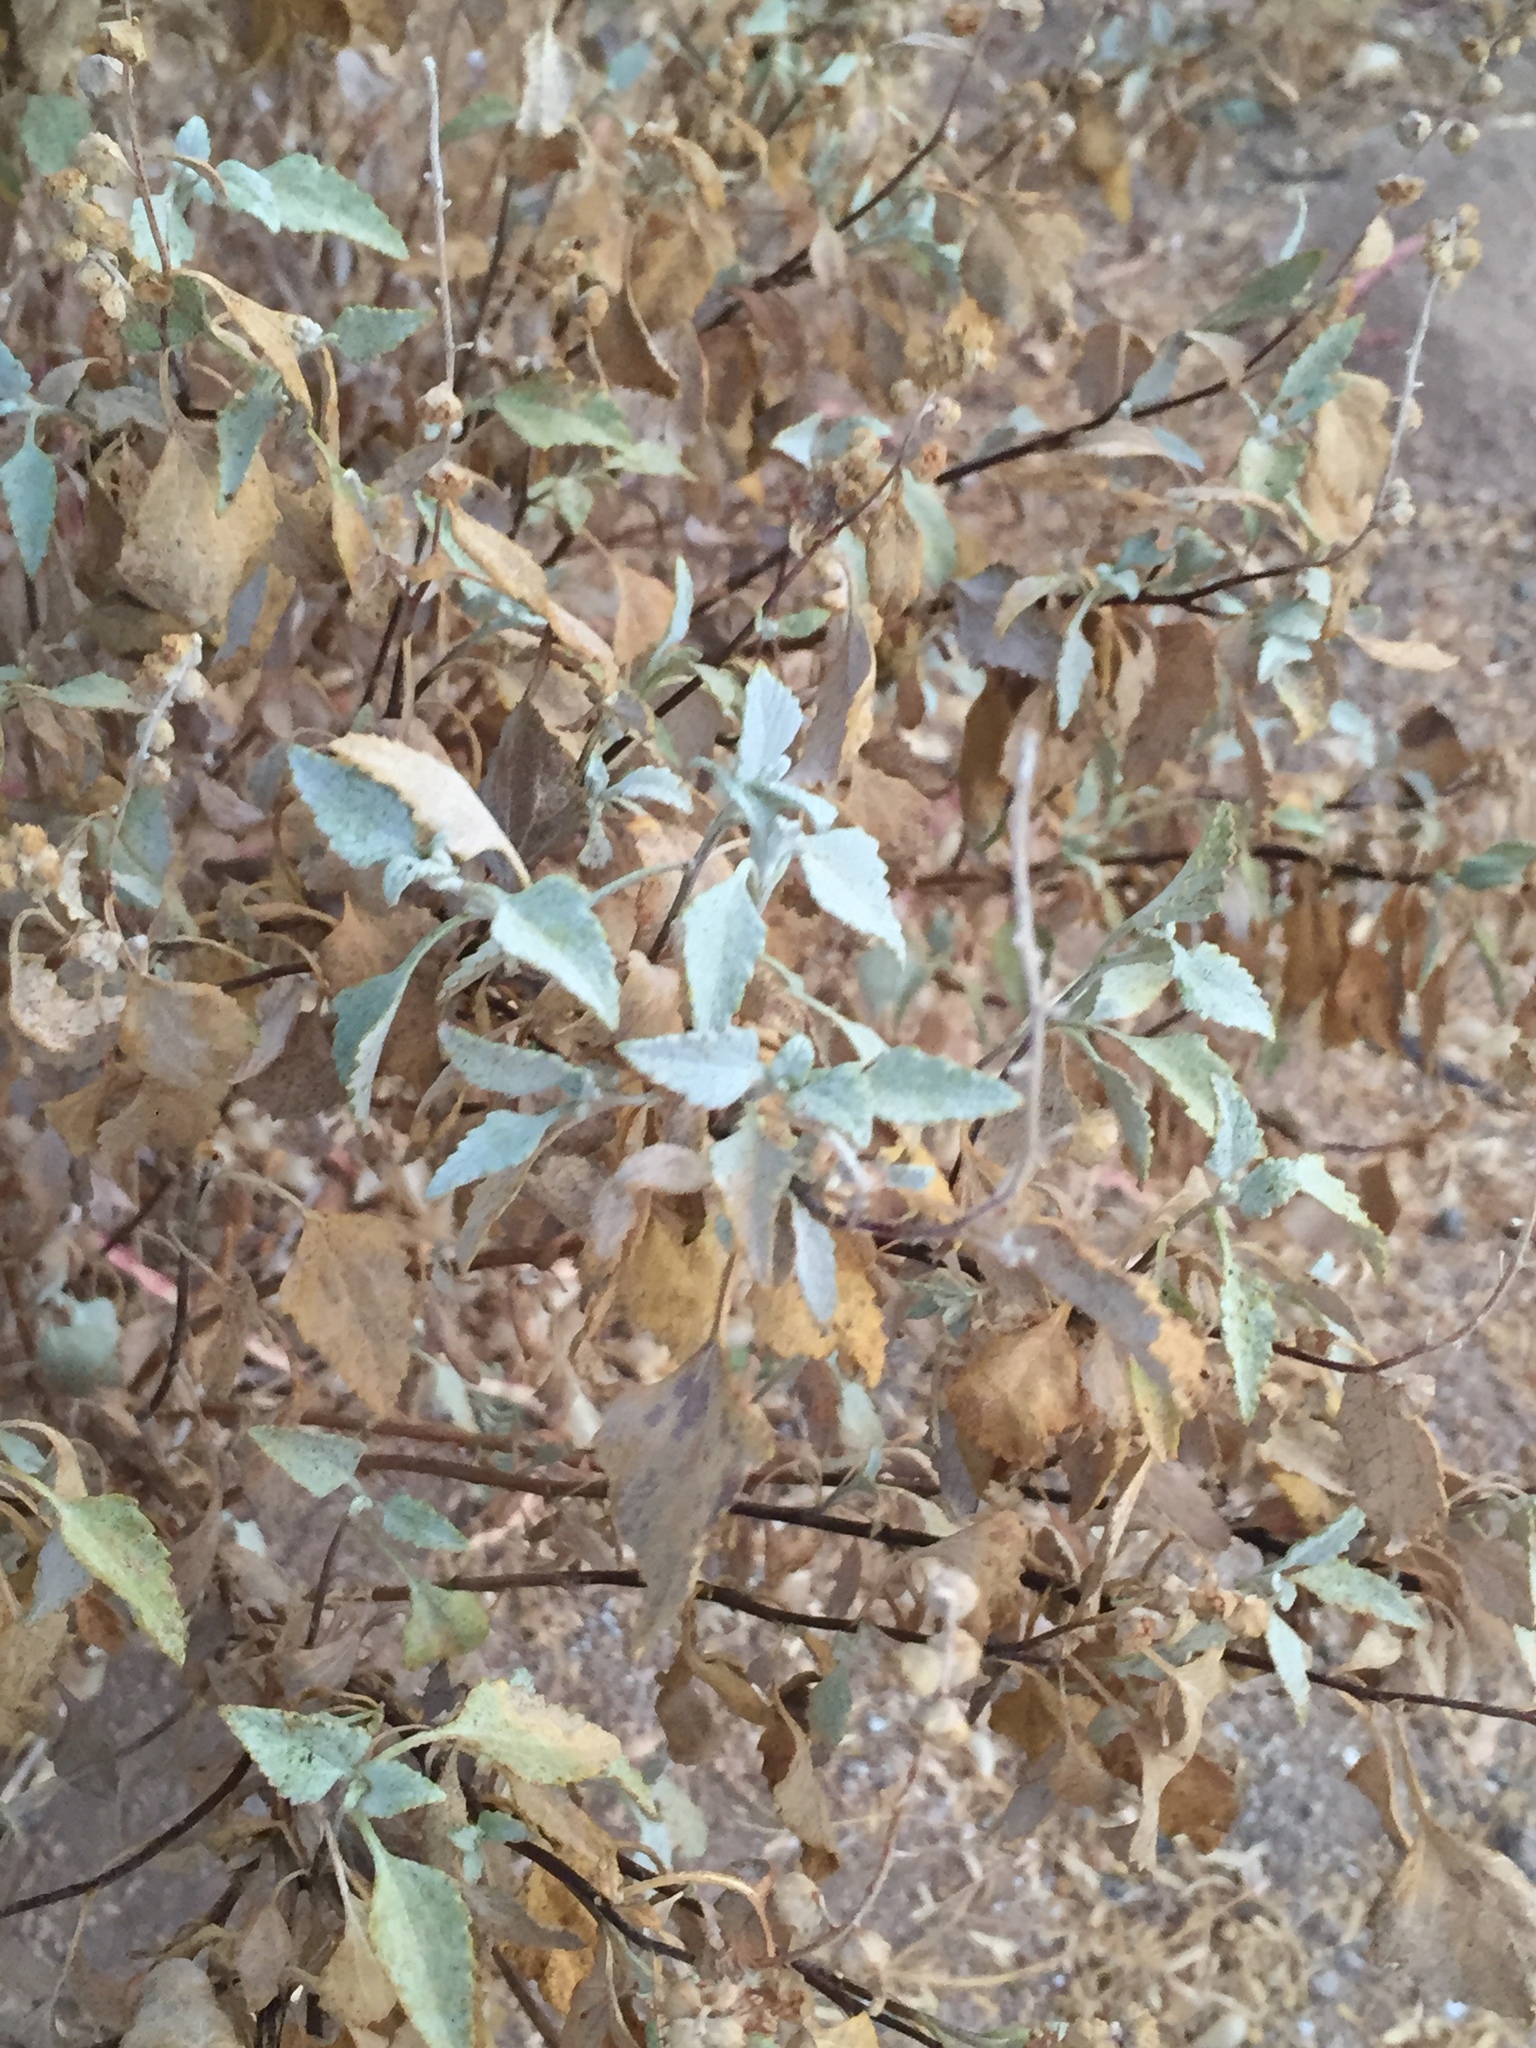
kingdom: Plantae
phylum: Tracheophyta
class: Magnoliopsida
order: Asterales
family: Asteraceae
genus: Ambrosia
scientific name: Ambrosia chenopodiifolia
